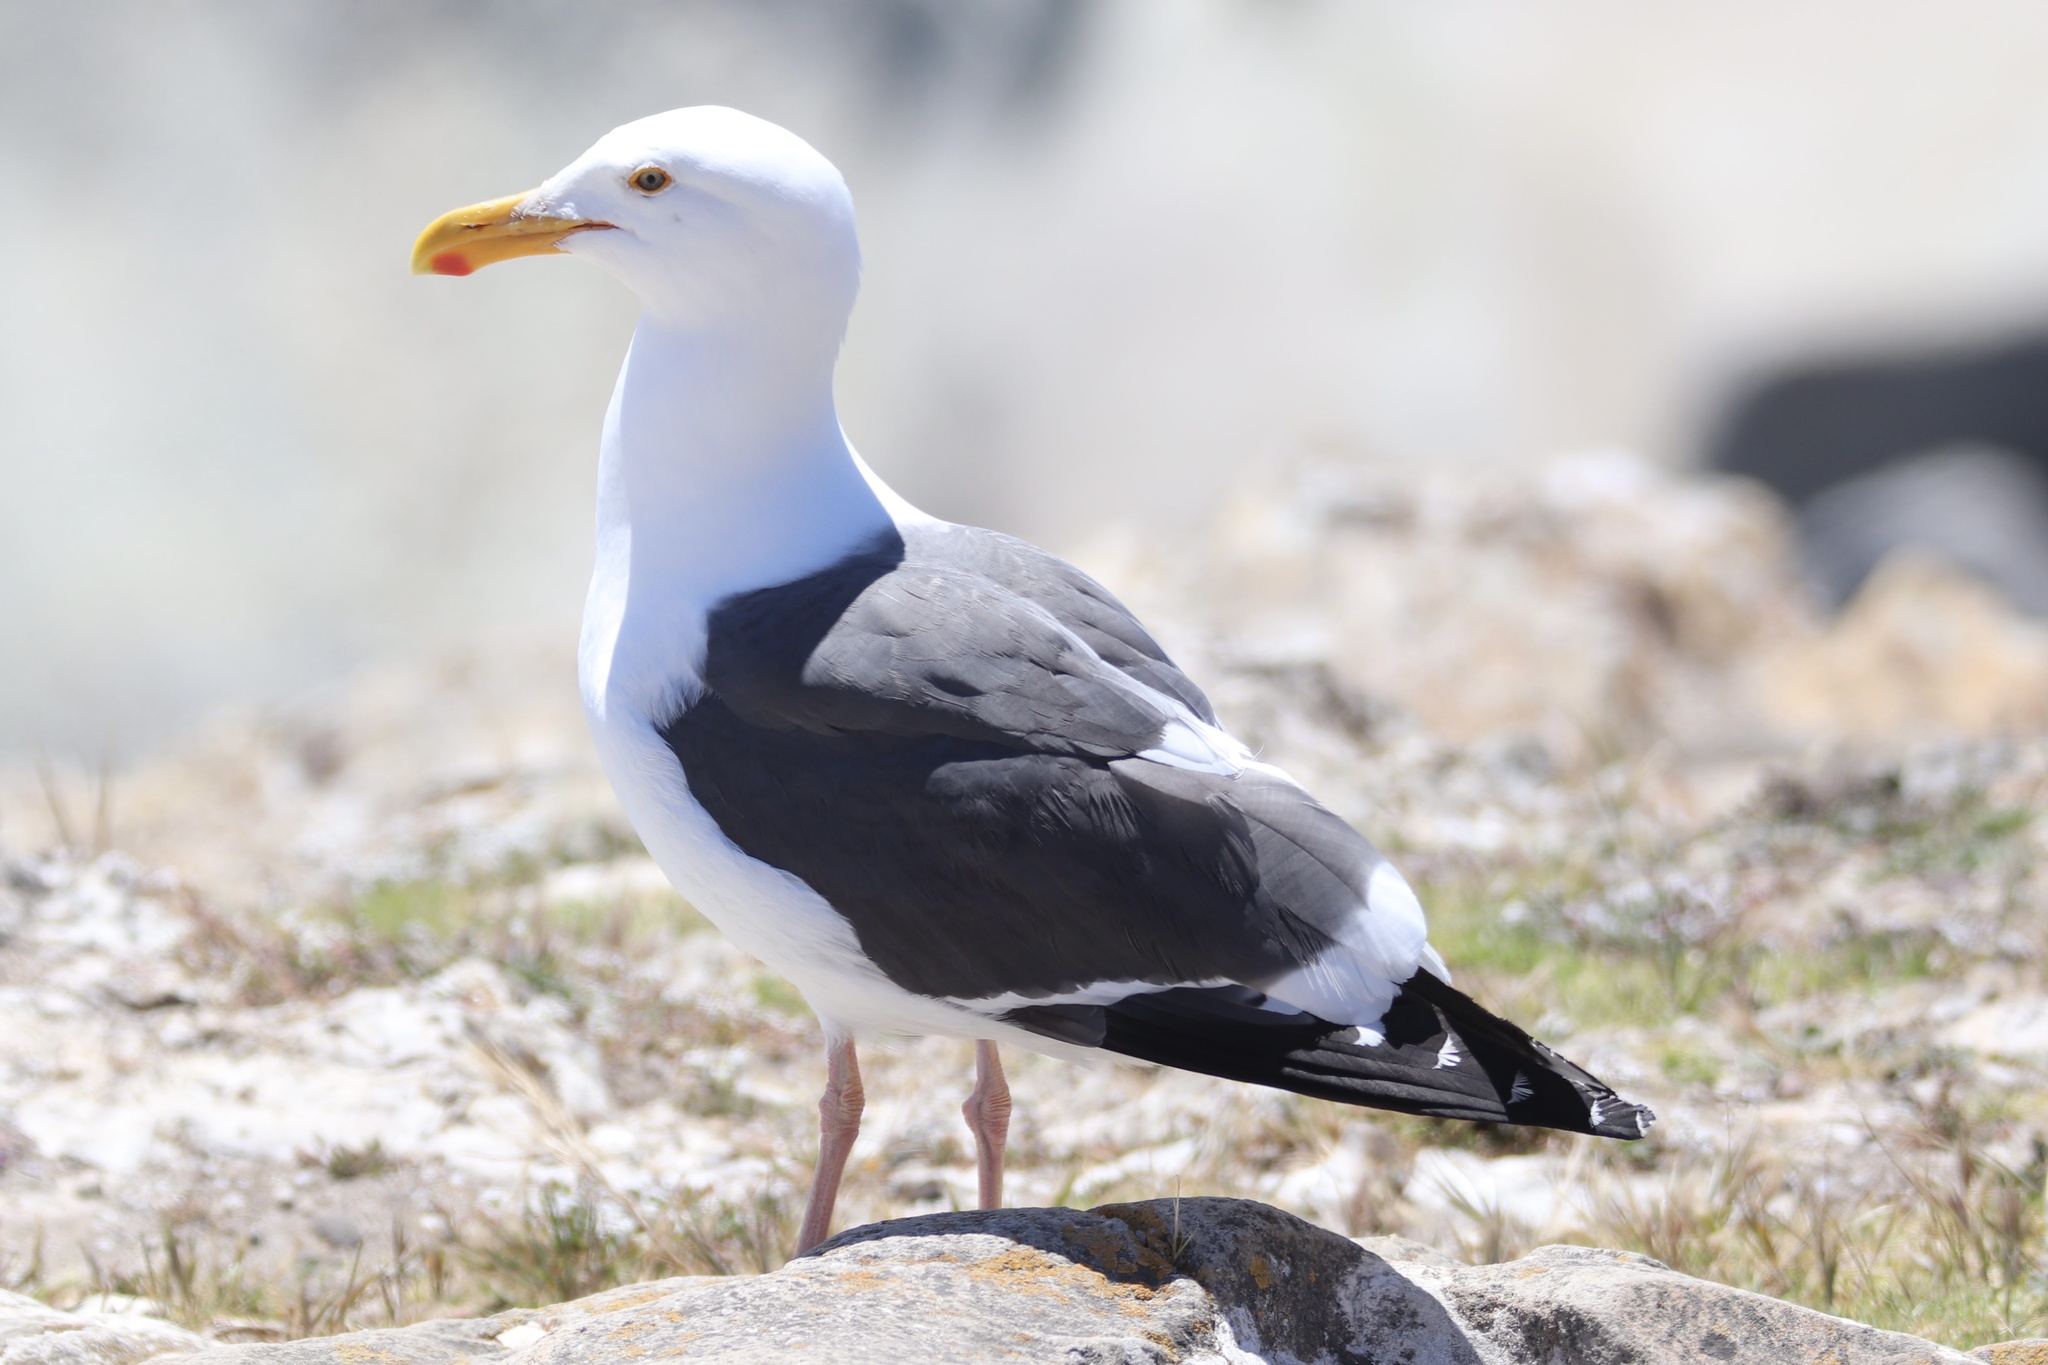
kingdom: Animalia
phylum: Chordata
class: Aves
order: Charadriiformes
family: Laridae
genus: Larus
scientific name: Larus occidentalis
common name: Western gull
